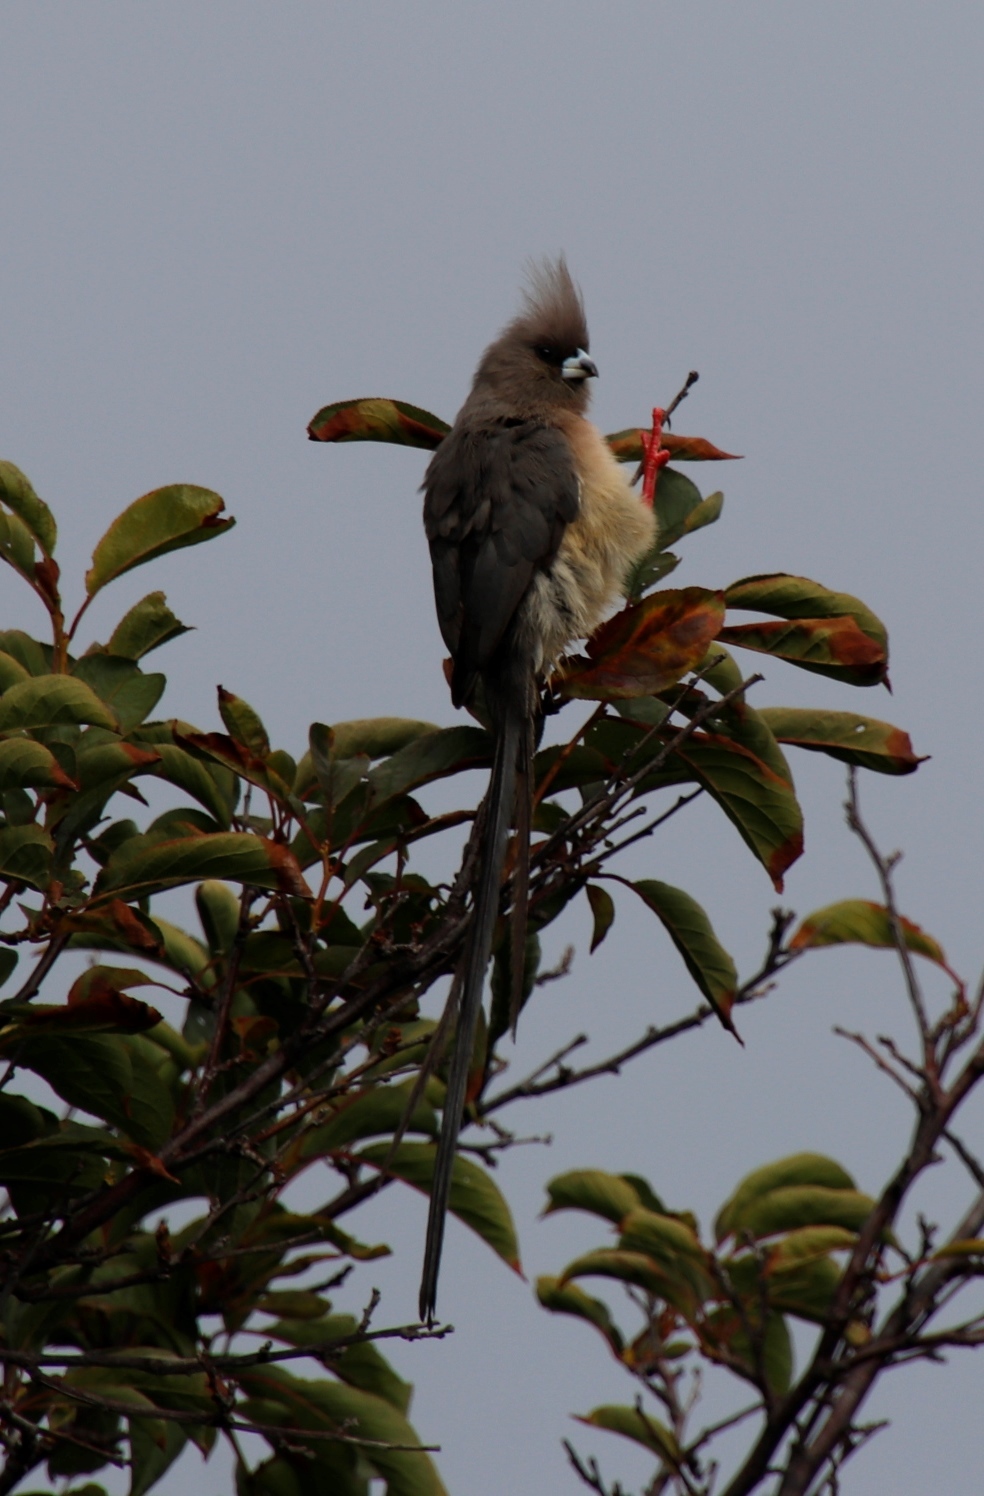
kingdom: Animalia
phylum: Chordata
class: Aves
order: Coliiformes
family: Coliidae
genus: Colius
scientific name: Colius colius
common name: White-backed mousebird
